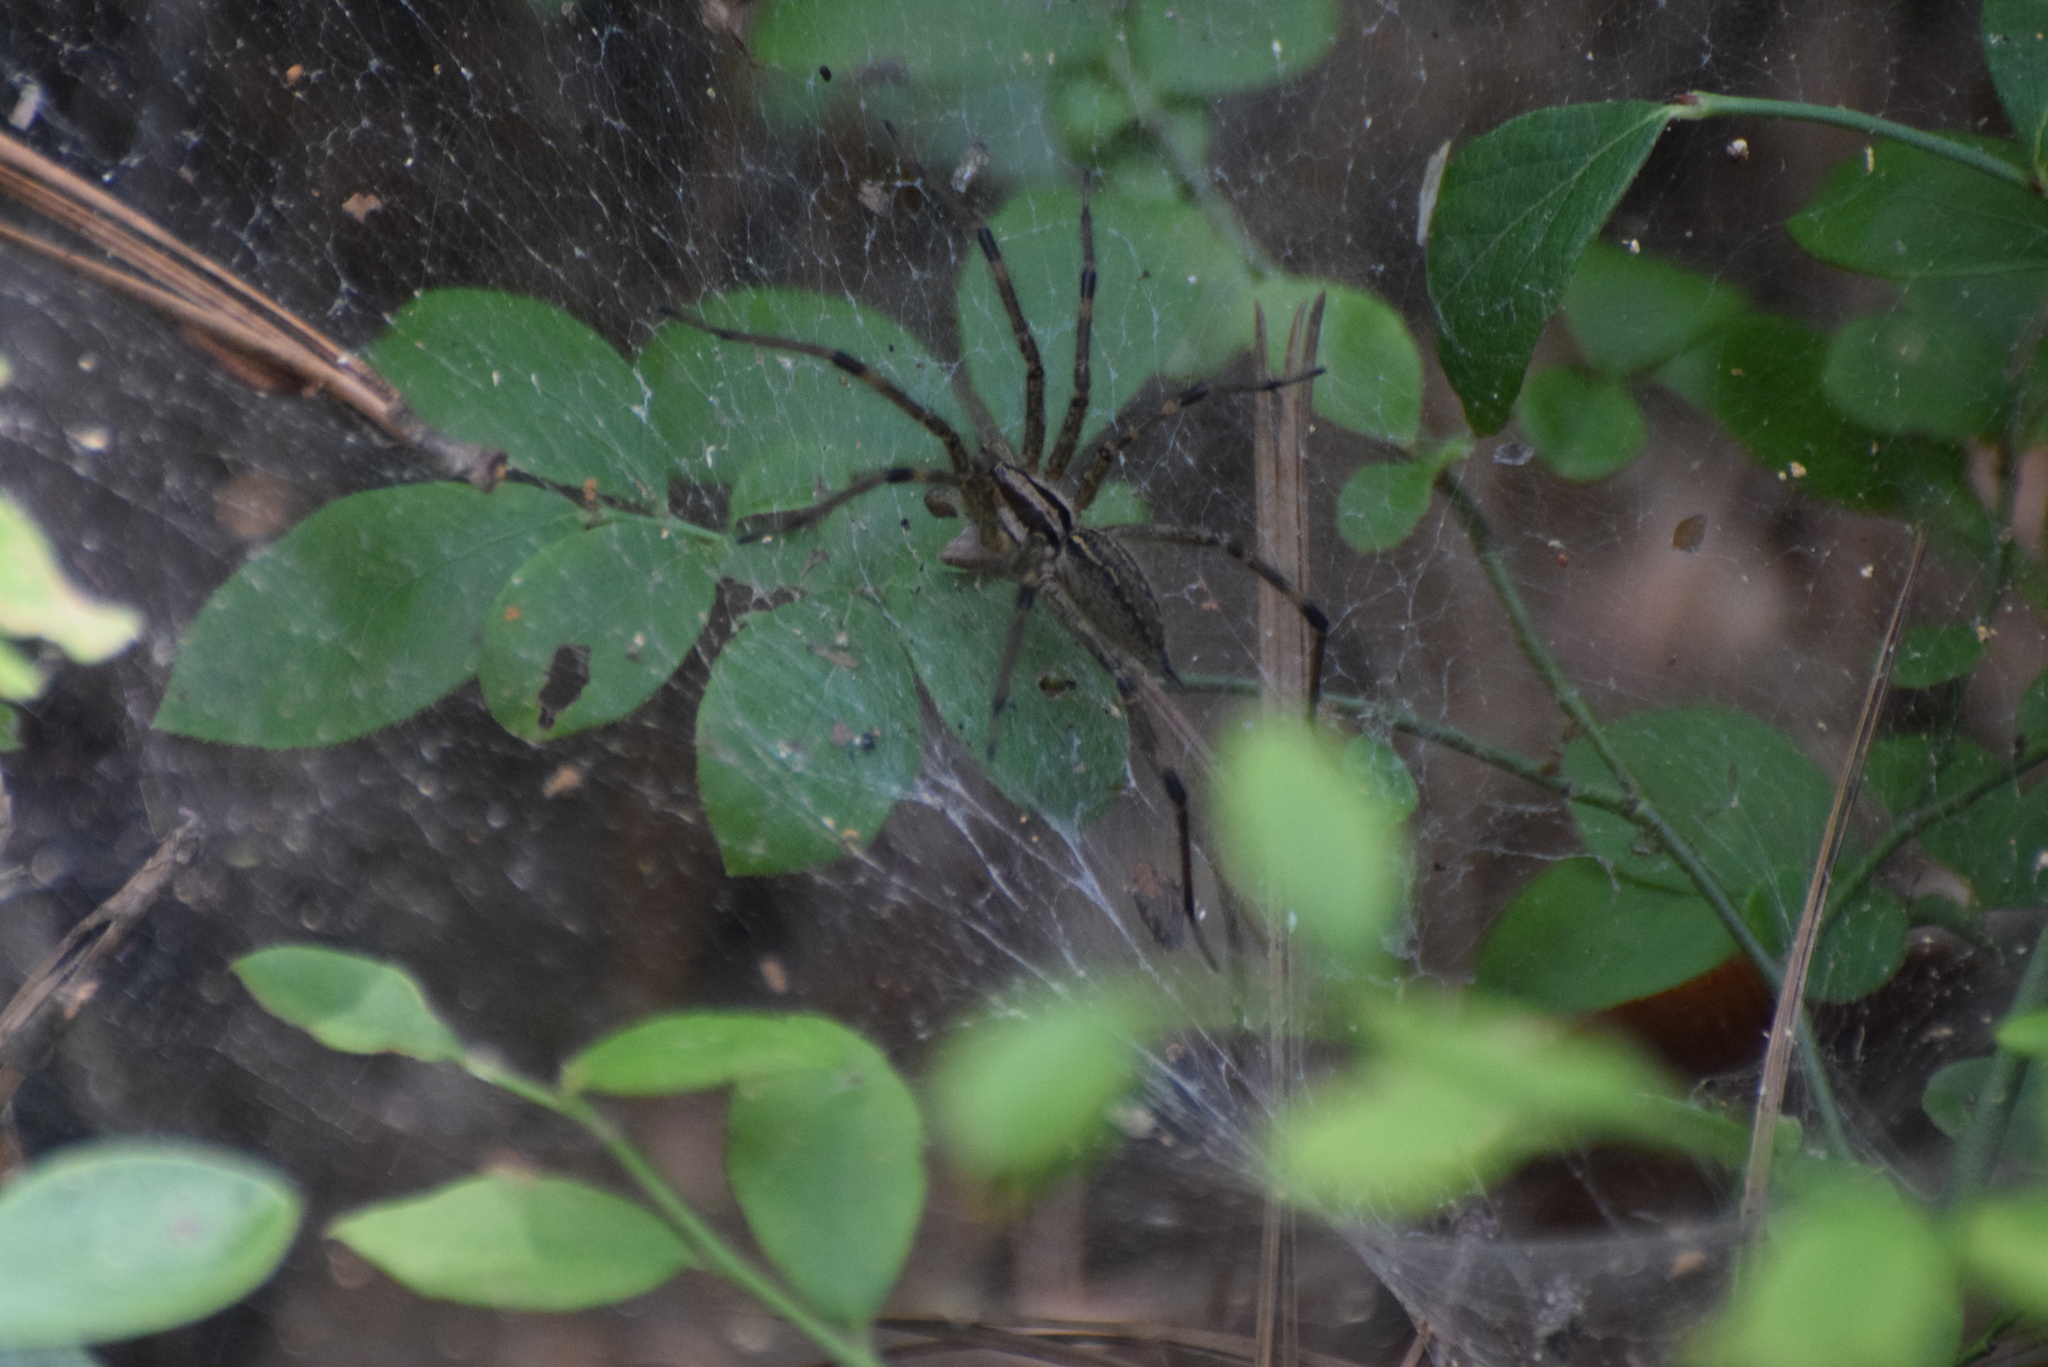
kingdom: Animalia
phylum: Arthropoda
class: Arachnida
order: Araneae
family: Agelenidae
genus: Agelenopsis
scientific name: Agelenopsis
